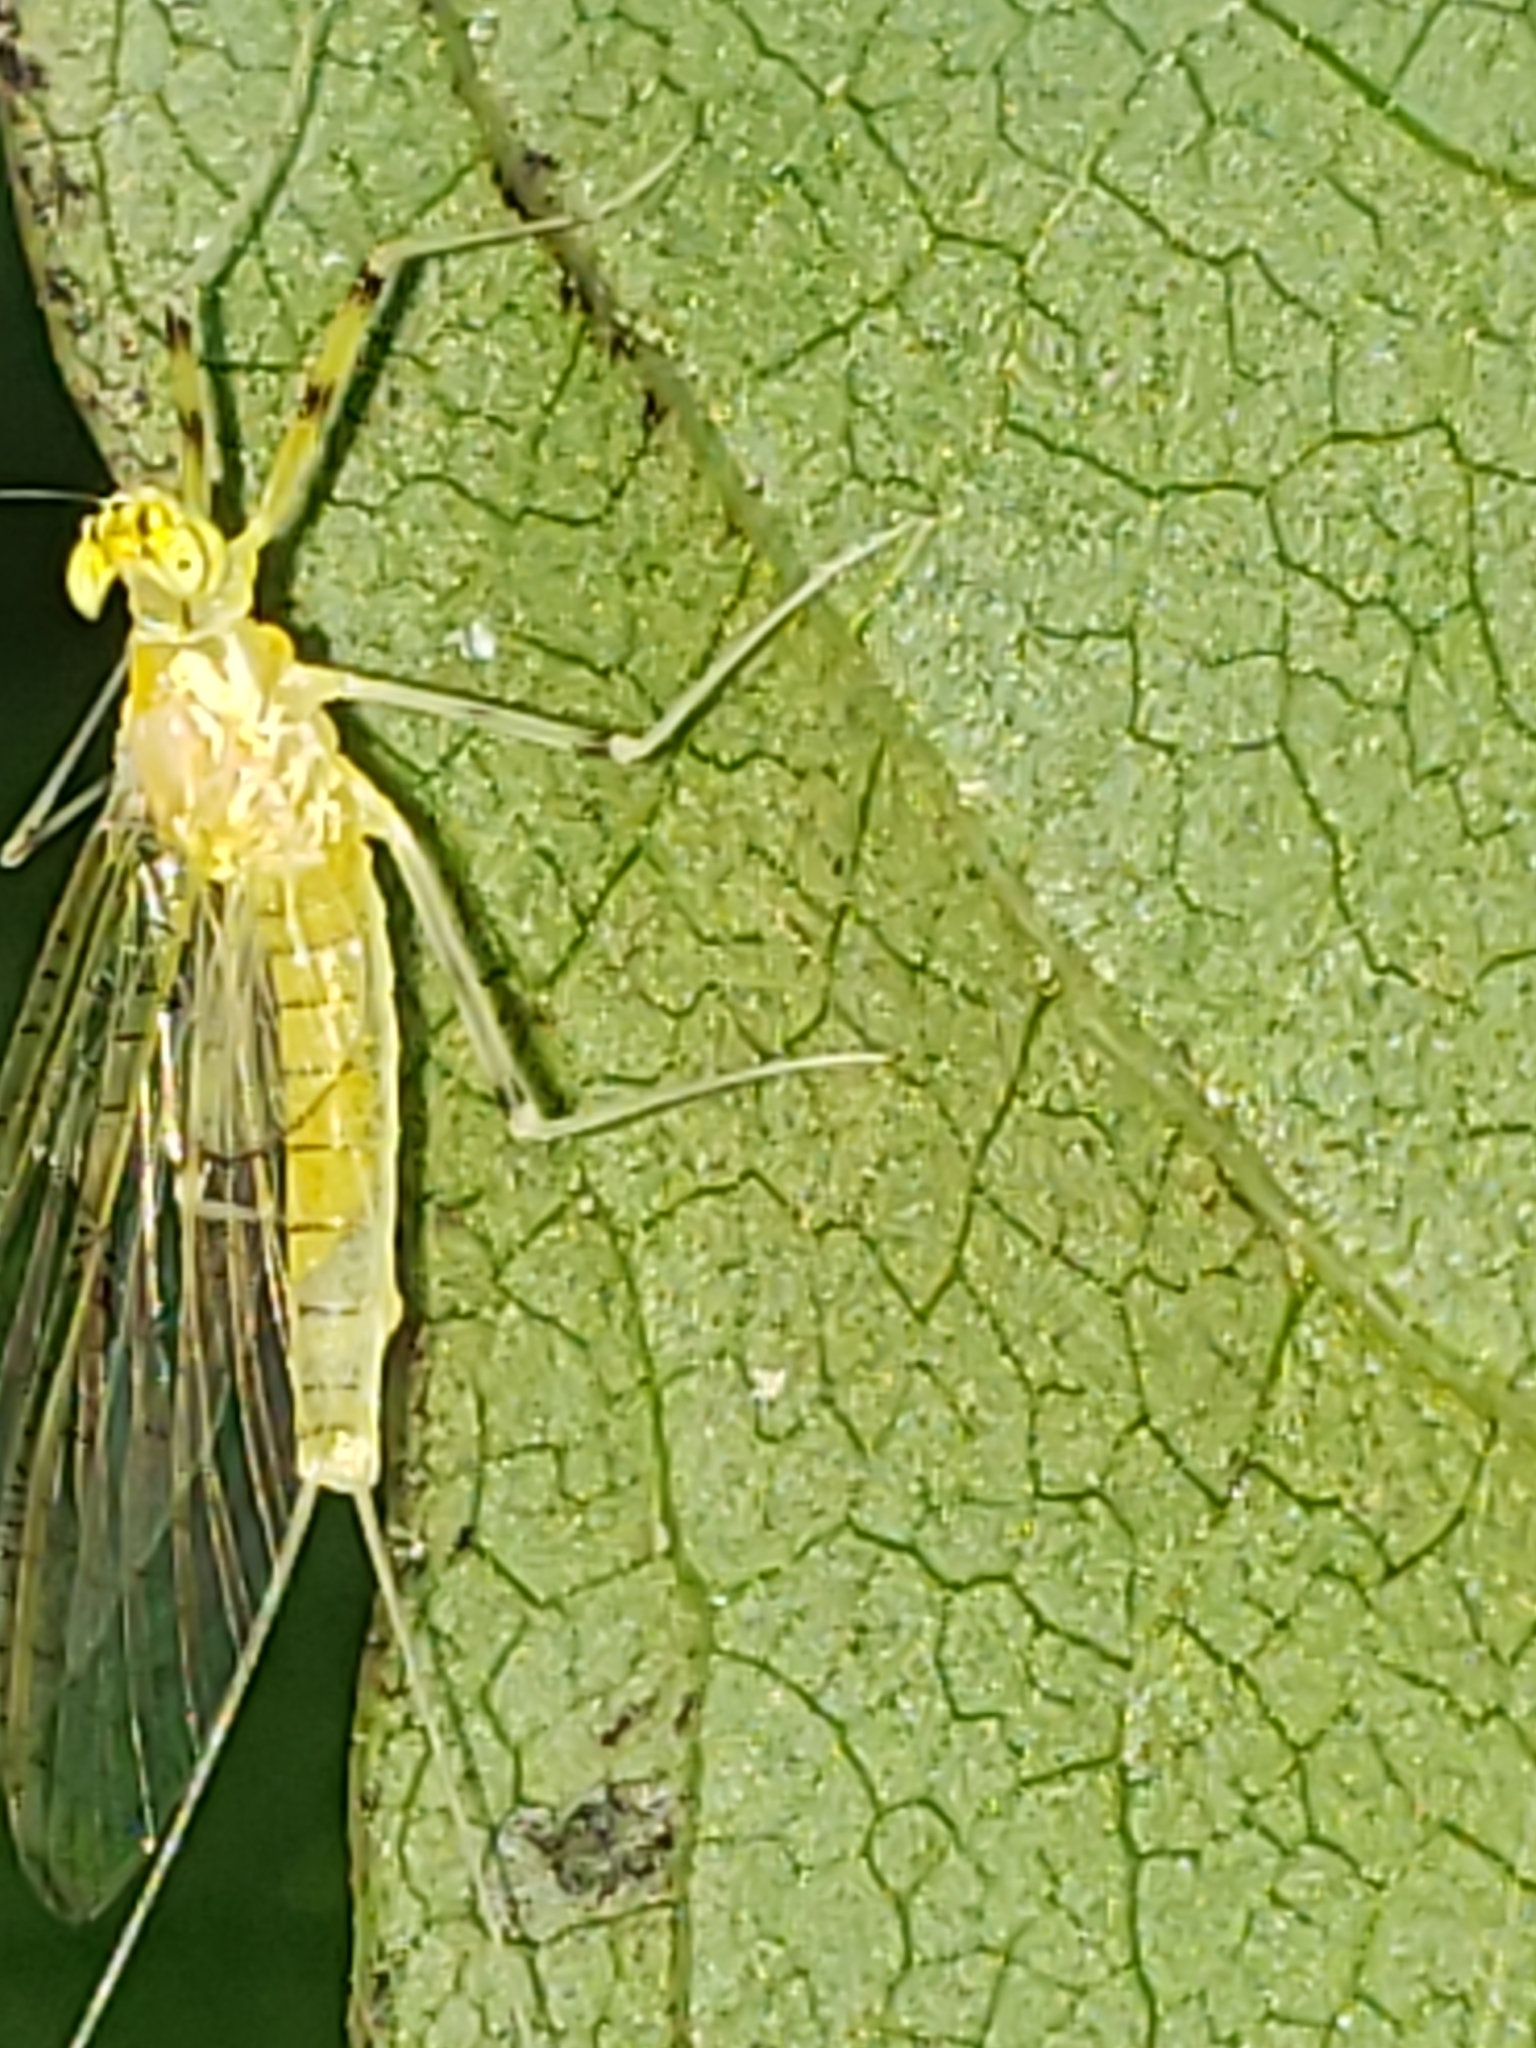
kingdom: Animalia
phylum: Arthropoda
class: Insecta
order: Ephemeroptera
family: Heptageniidae
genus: Stenacron
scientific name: Stenacron interpunctatum
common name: Orange cahill
